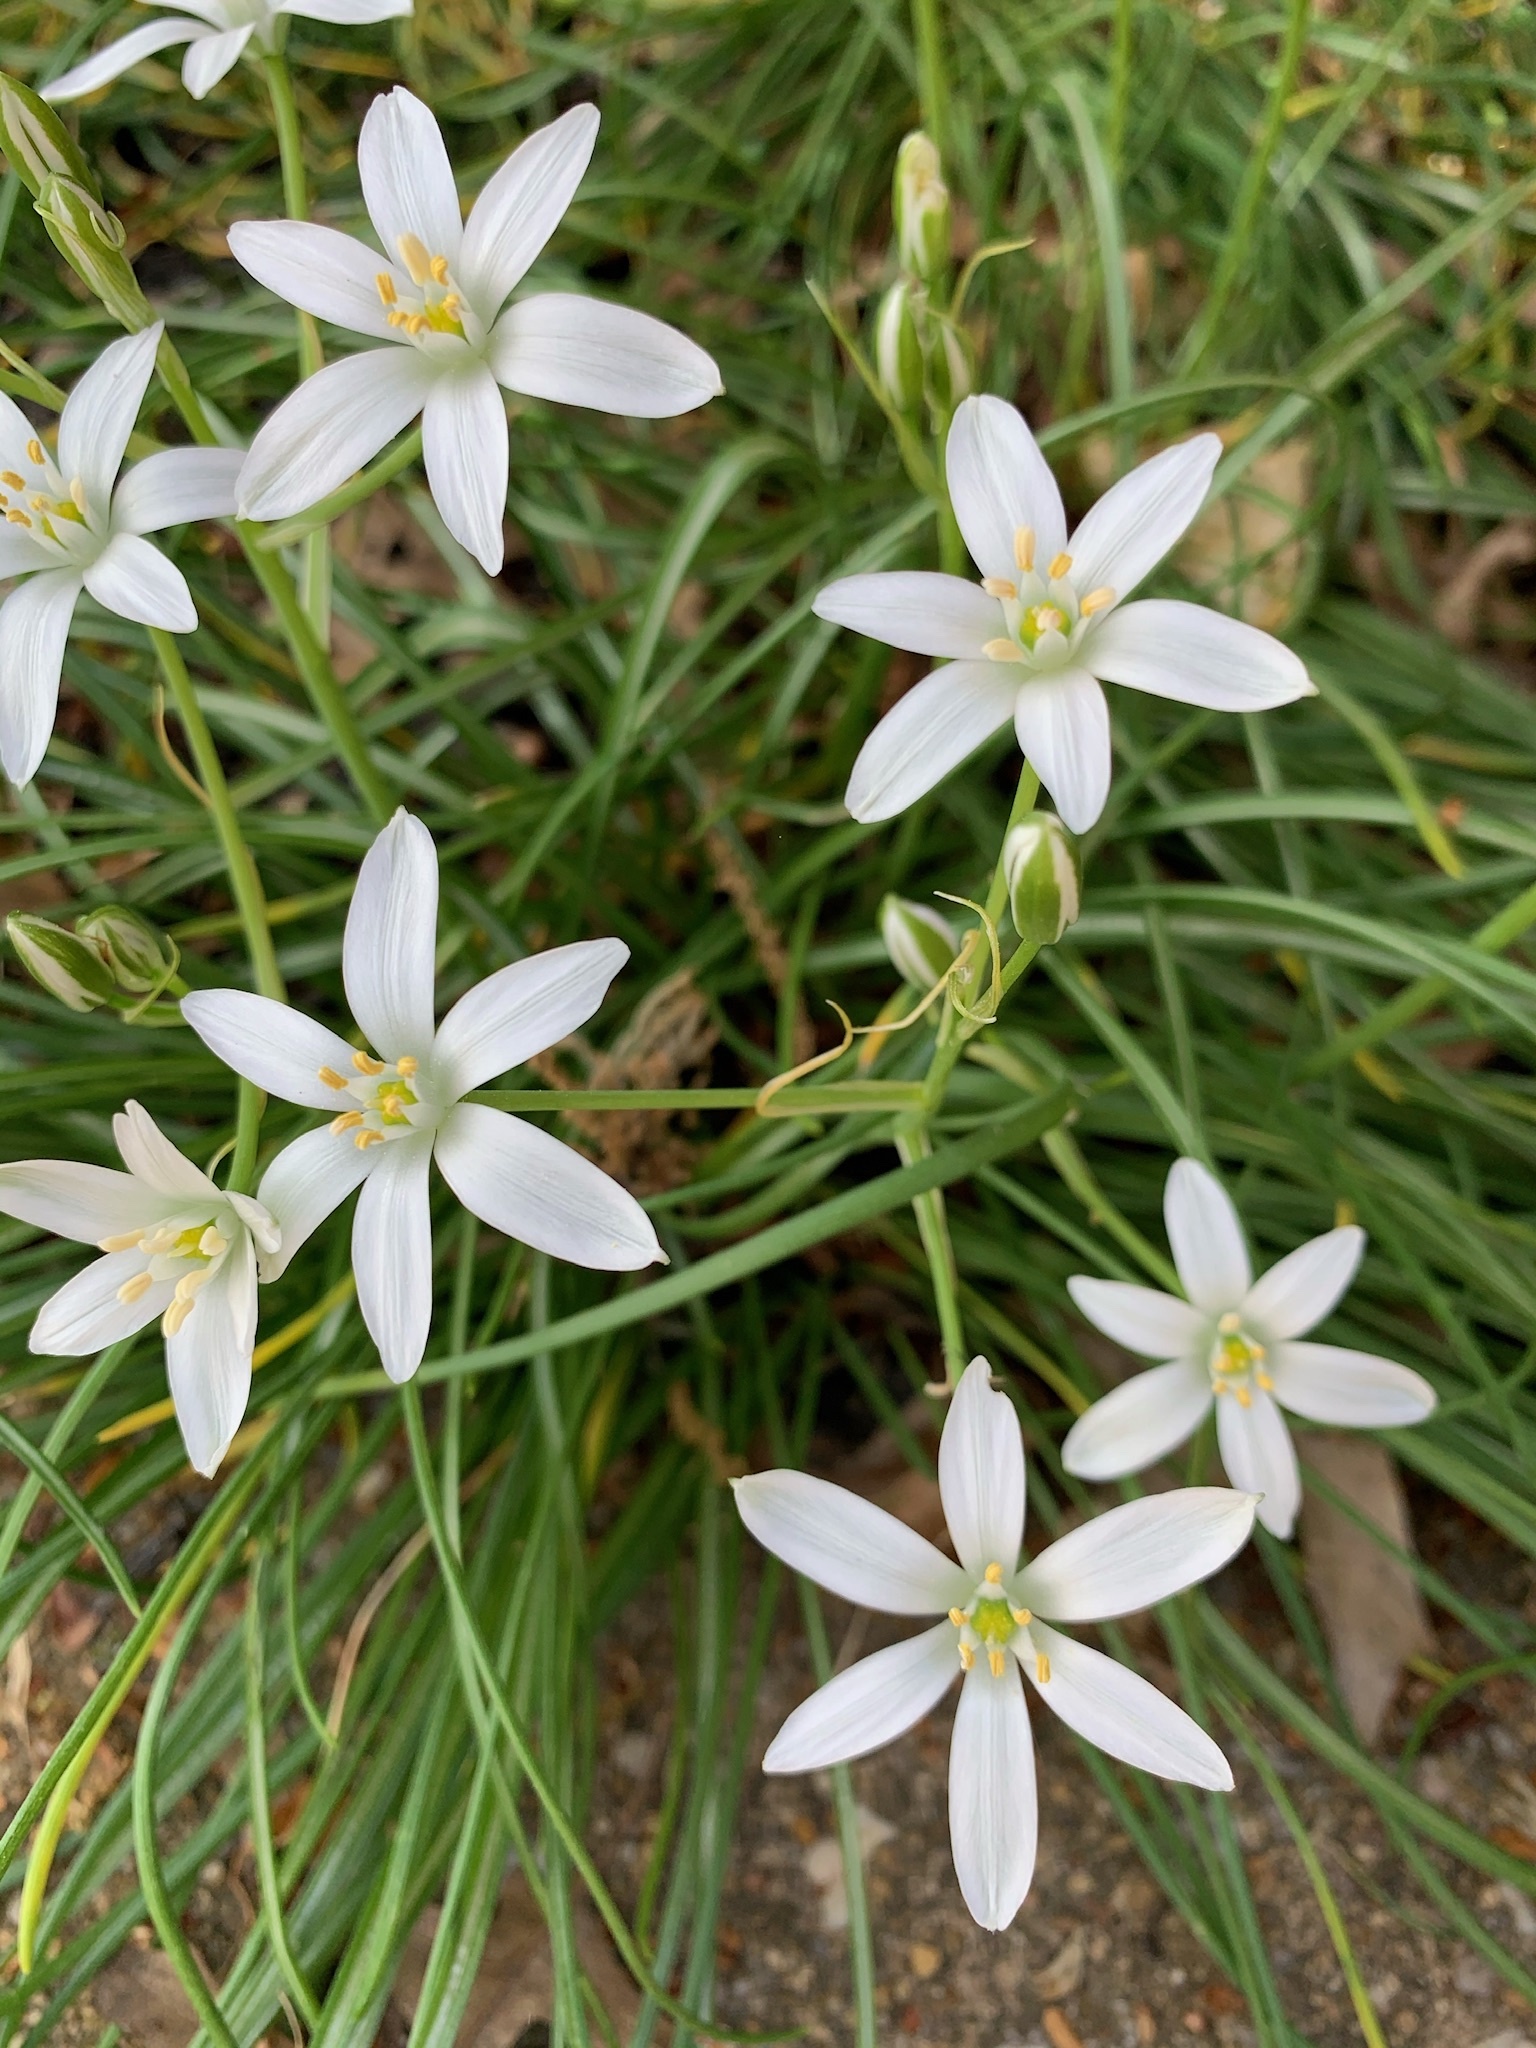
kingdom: Plantae
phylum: Tracheophyta
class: Liliopsida
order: Asparagales
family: Asparagaceae
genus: Ornithogalum
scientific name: Ornithogalum umbellatum
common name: Garden star-of-bethlehem
